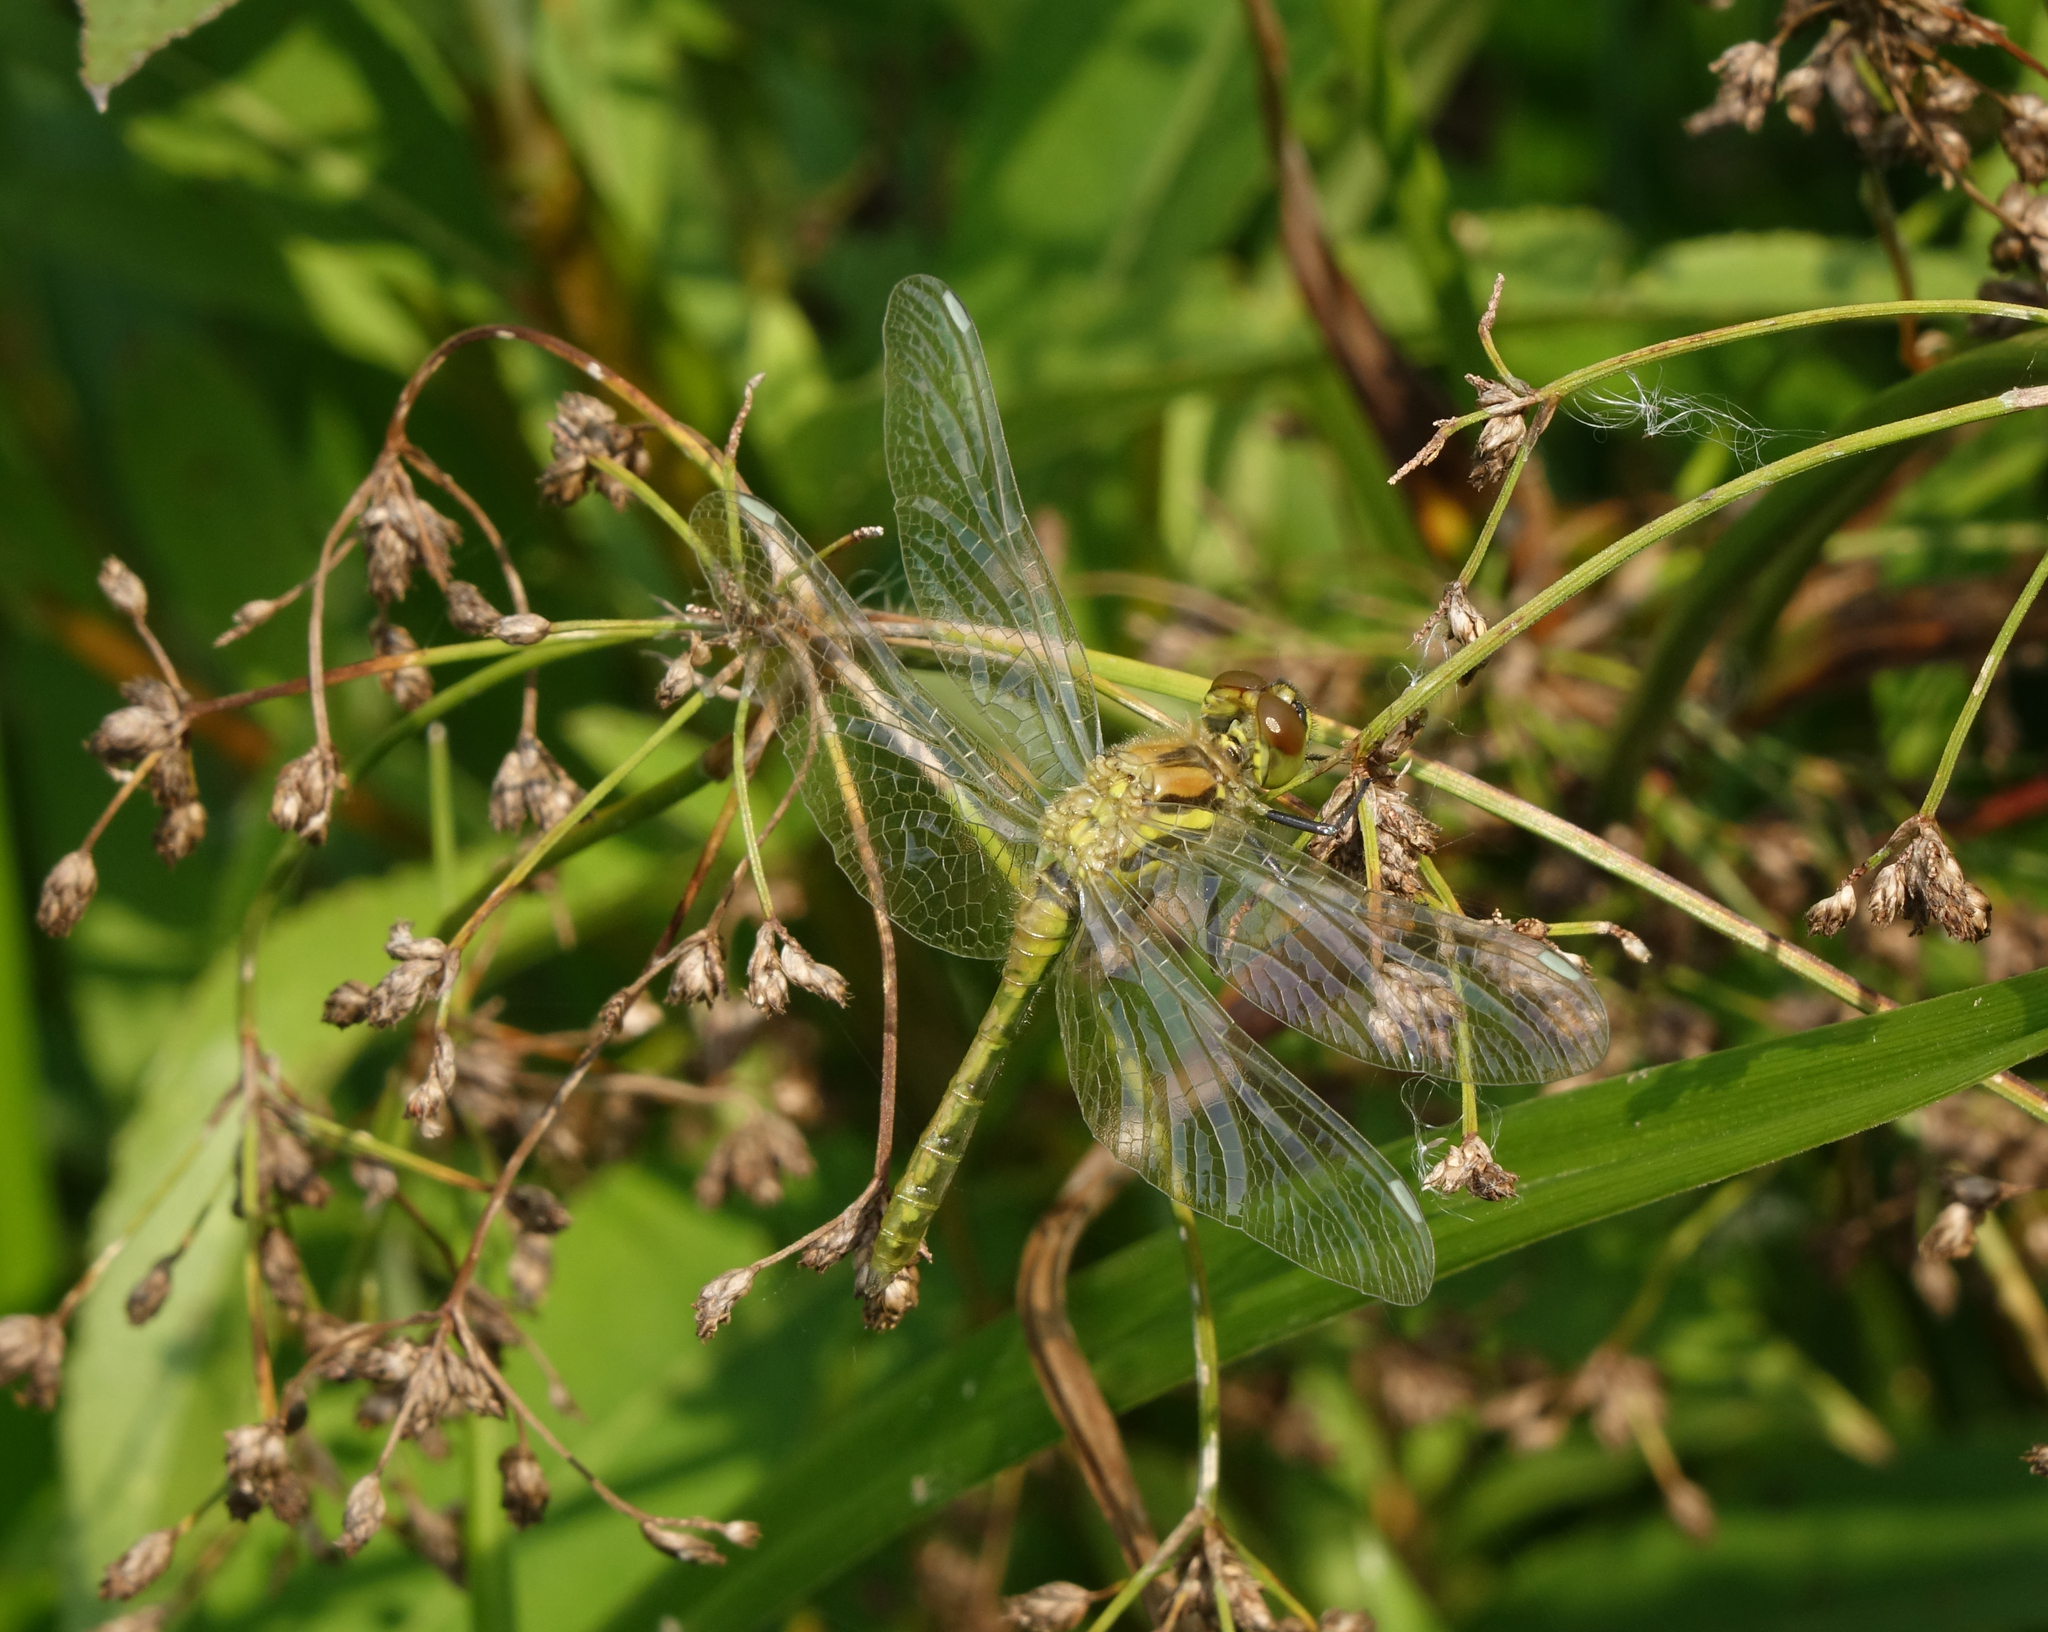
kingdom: Plantae
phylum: Tracheophyta
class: Liliopsida
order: Poales
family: Cyperaceae
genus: Scirpus
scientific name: Scirpus sylvaticus
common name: Wood club-rush
